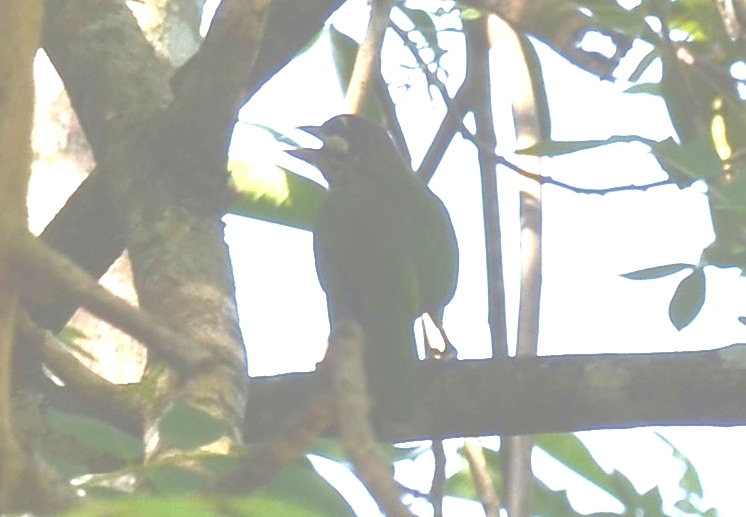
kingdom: Animalia
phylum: Chordata
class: Aves
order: Piciformes
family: Megalaimidae
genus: Psilopogon
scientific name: Psilopogon viridis
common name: White-cheeked barbet
